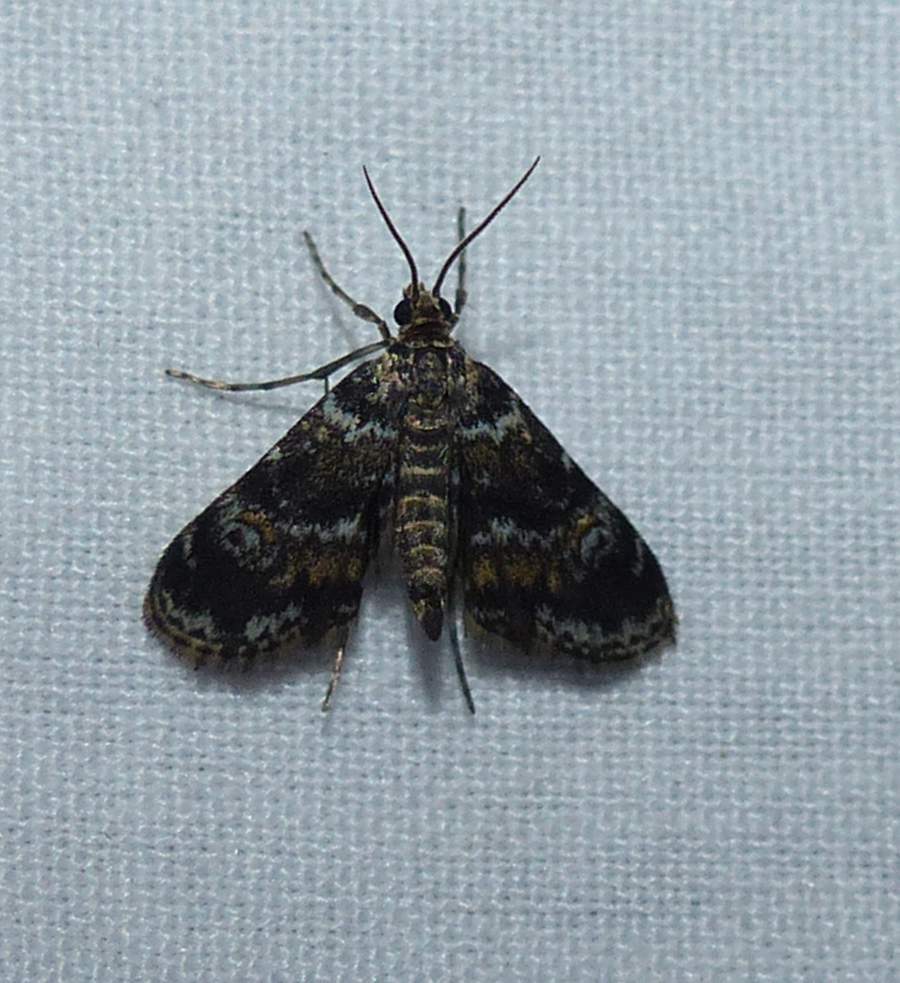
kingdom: Animalia
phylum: Arthropoda
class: Insecta
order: Lepidoptera
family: Crambidae
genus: Elophila
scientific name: Elophila obliteralis
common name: Waterlily leafcutter moth
